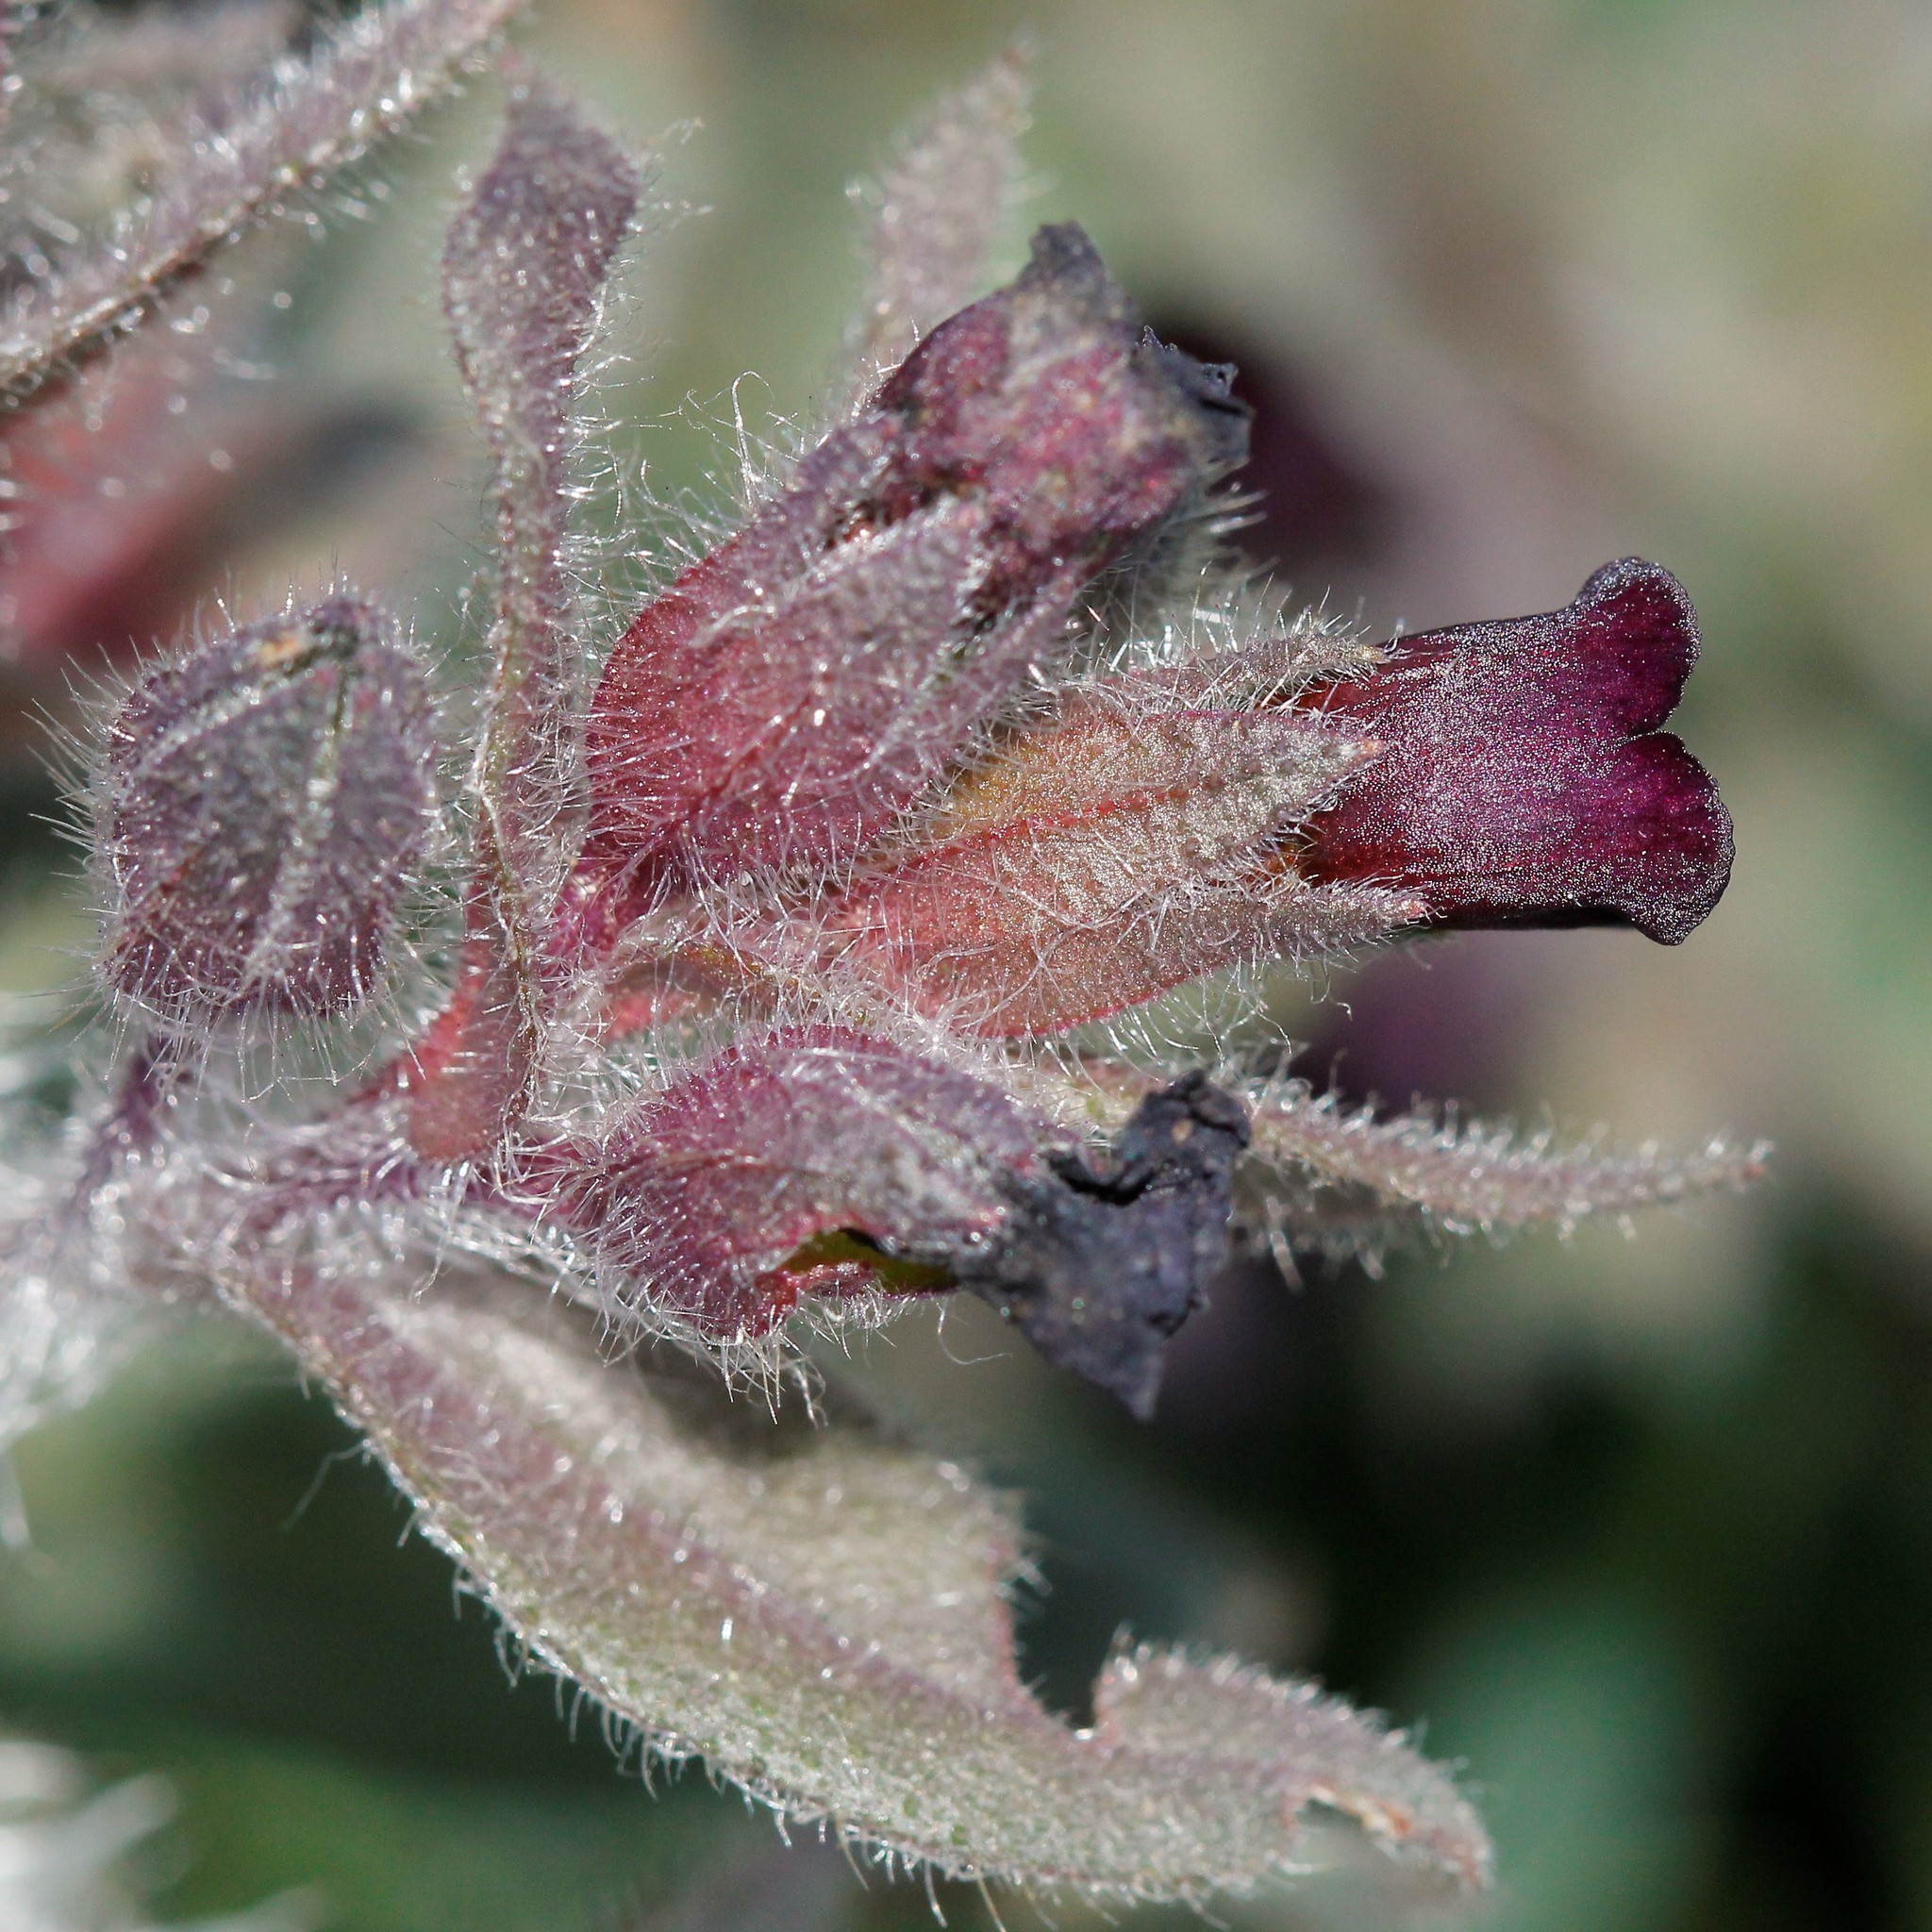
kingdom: Plantae
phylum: Tracheophyta
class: Magnoliopsida
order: Boraginales
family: Boraginaceae
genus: Nonea
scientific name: Nonea pulla
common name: Brown nonea
